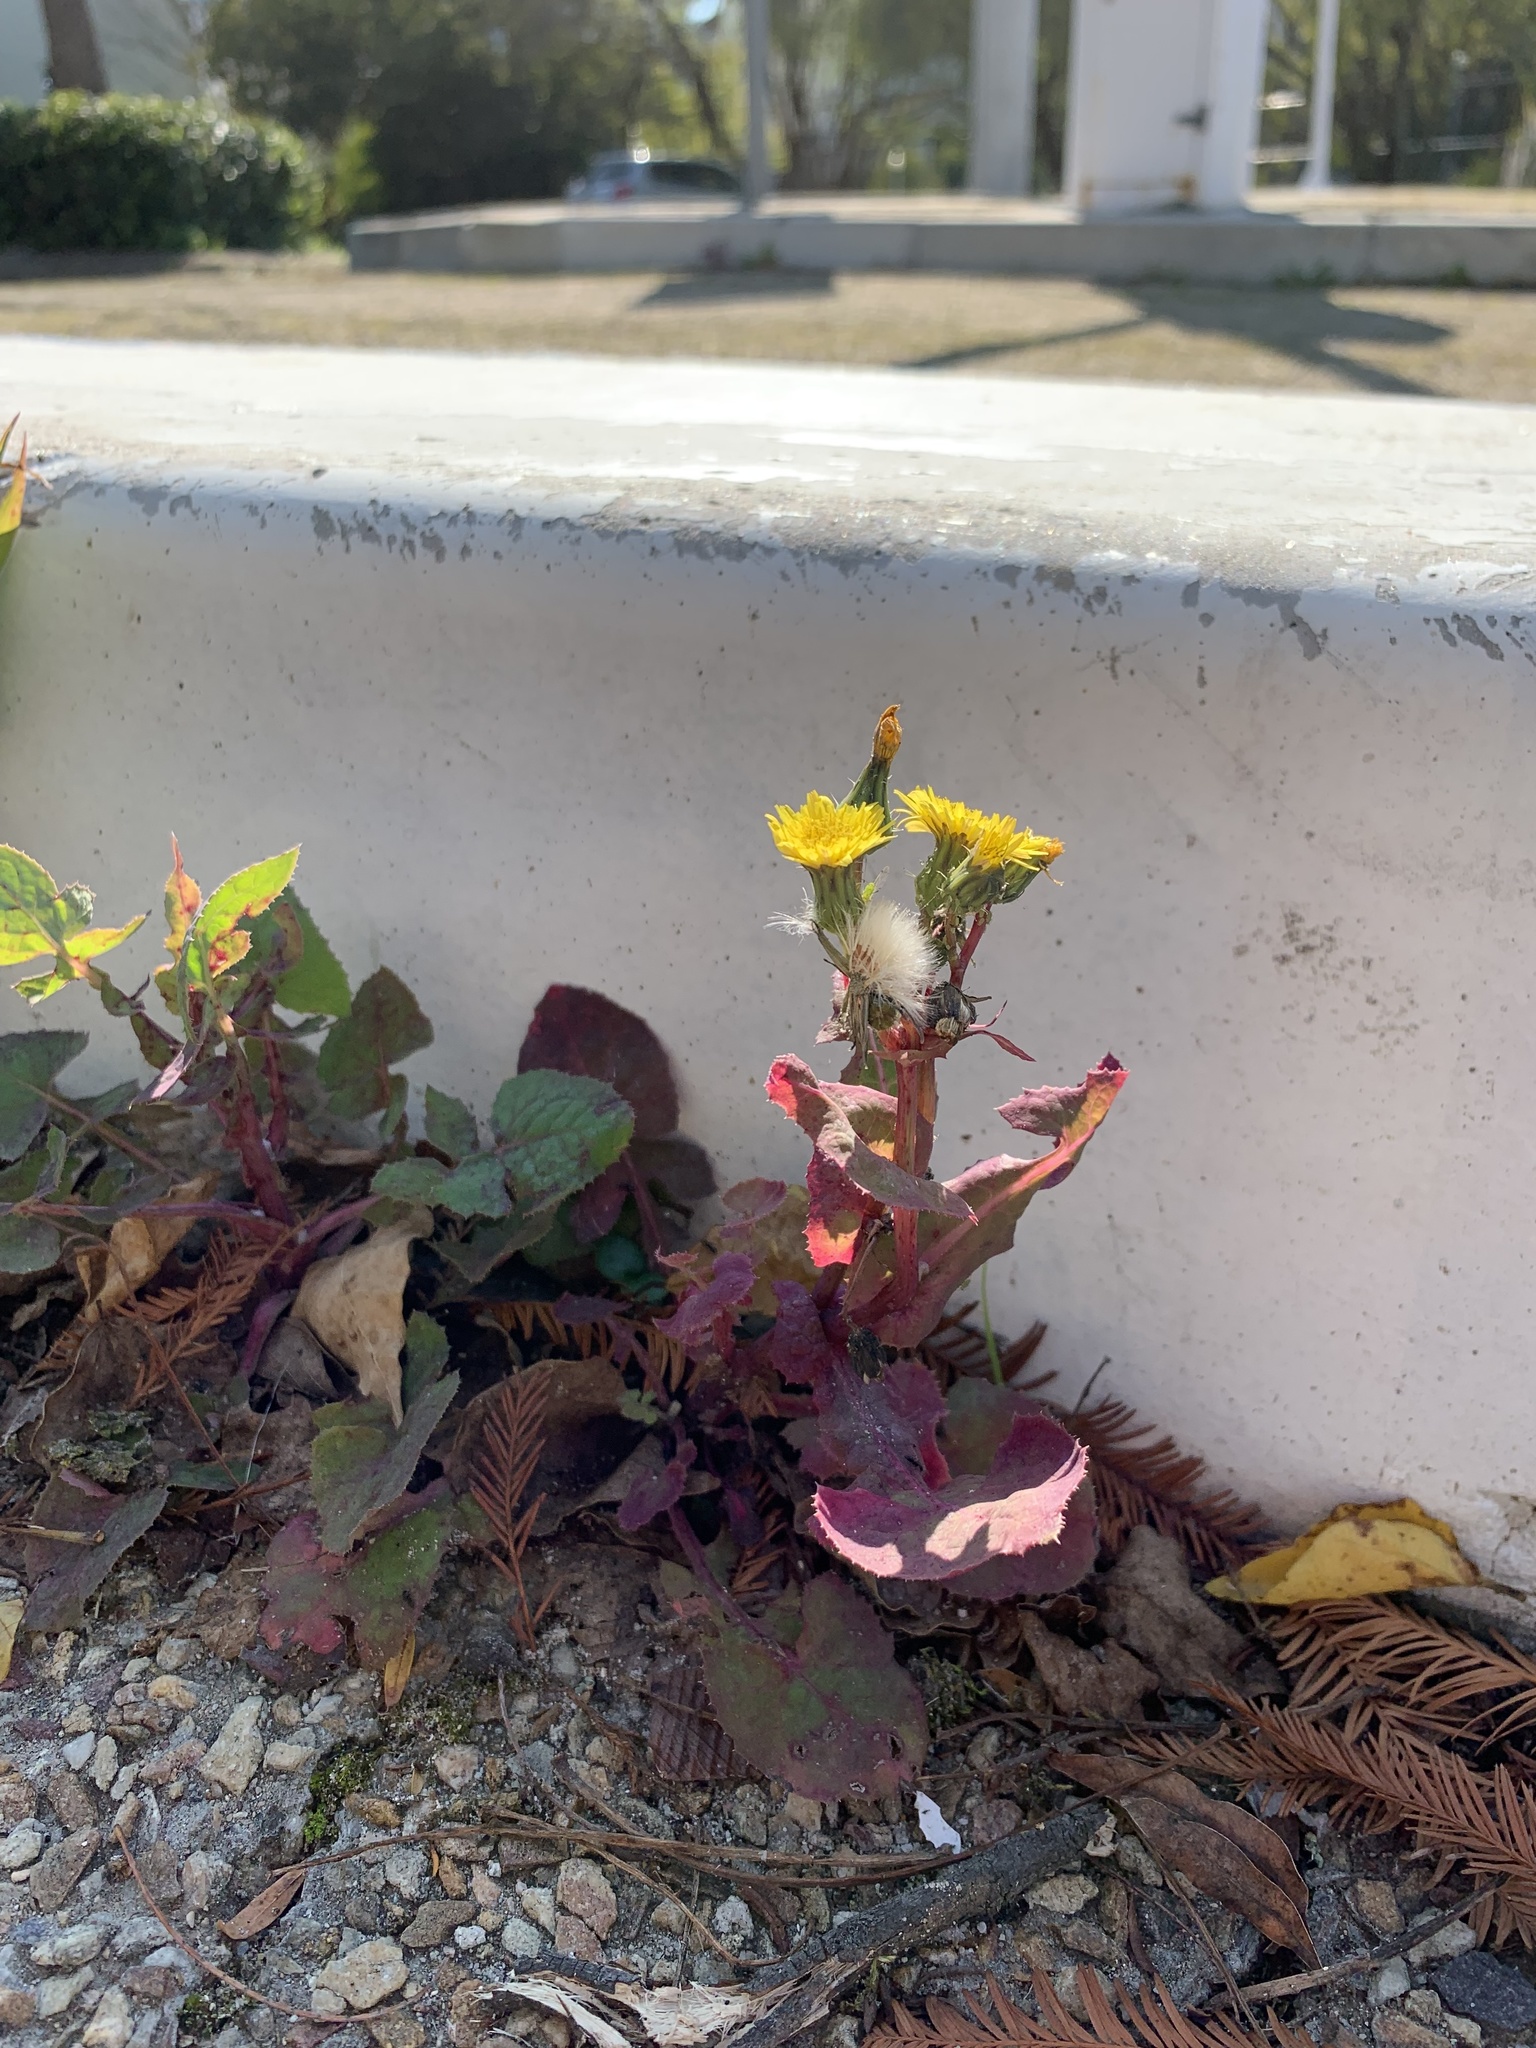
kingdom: Plantae
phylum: Tracheophyta
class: Magnoliopsida
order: Asterales
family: Asteraceae
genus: Sonchus
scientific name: Sonchus oleraceus
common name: Common sowthistle
